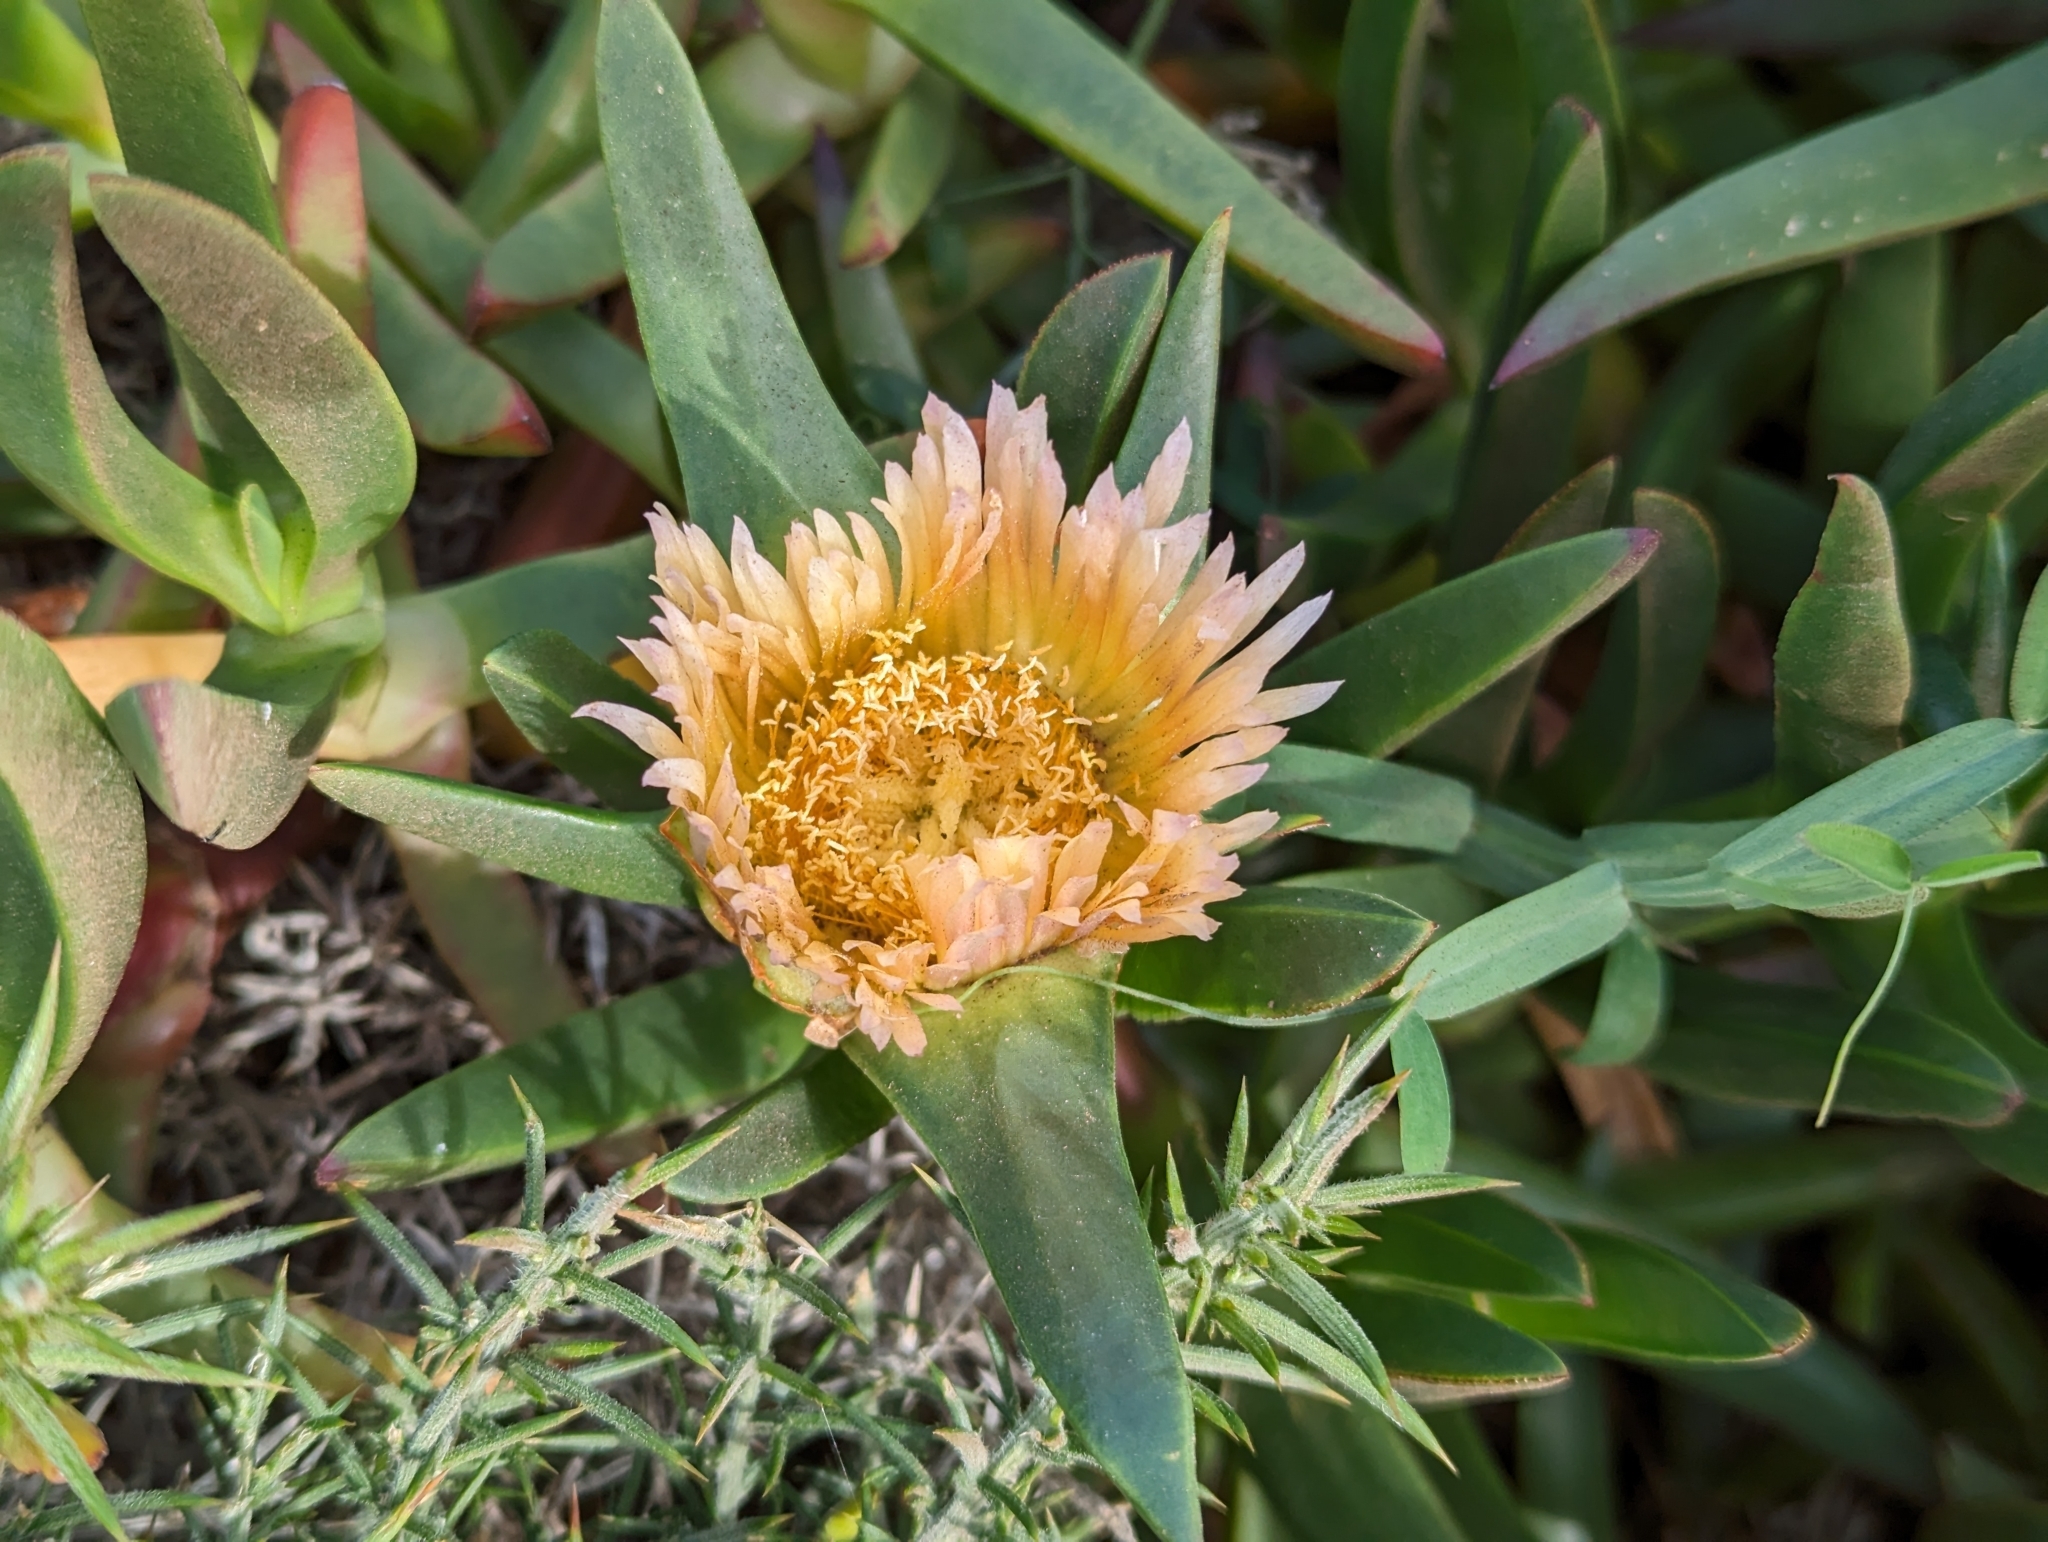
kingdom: Plantae
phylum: Tracheophyta
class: Magnoliopsida
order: Caryophyllales
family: Aizoaceae
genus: Carpobrotus
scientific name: Carpobrotus edulis
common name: Hottentot-fig
